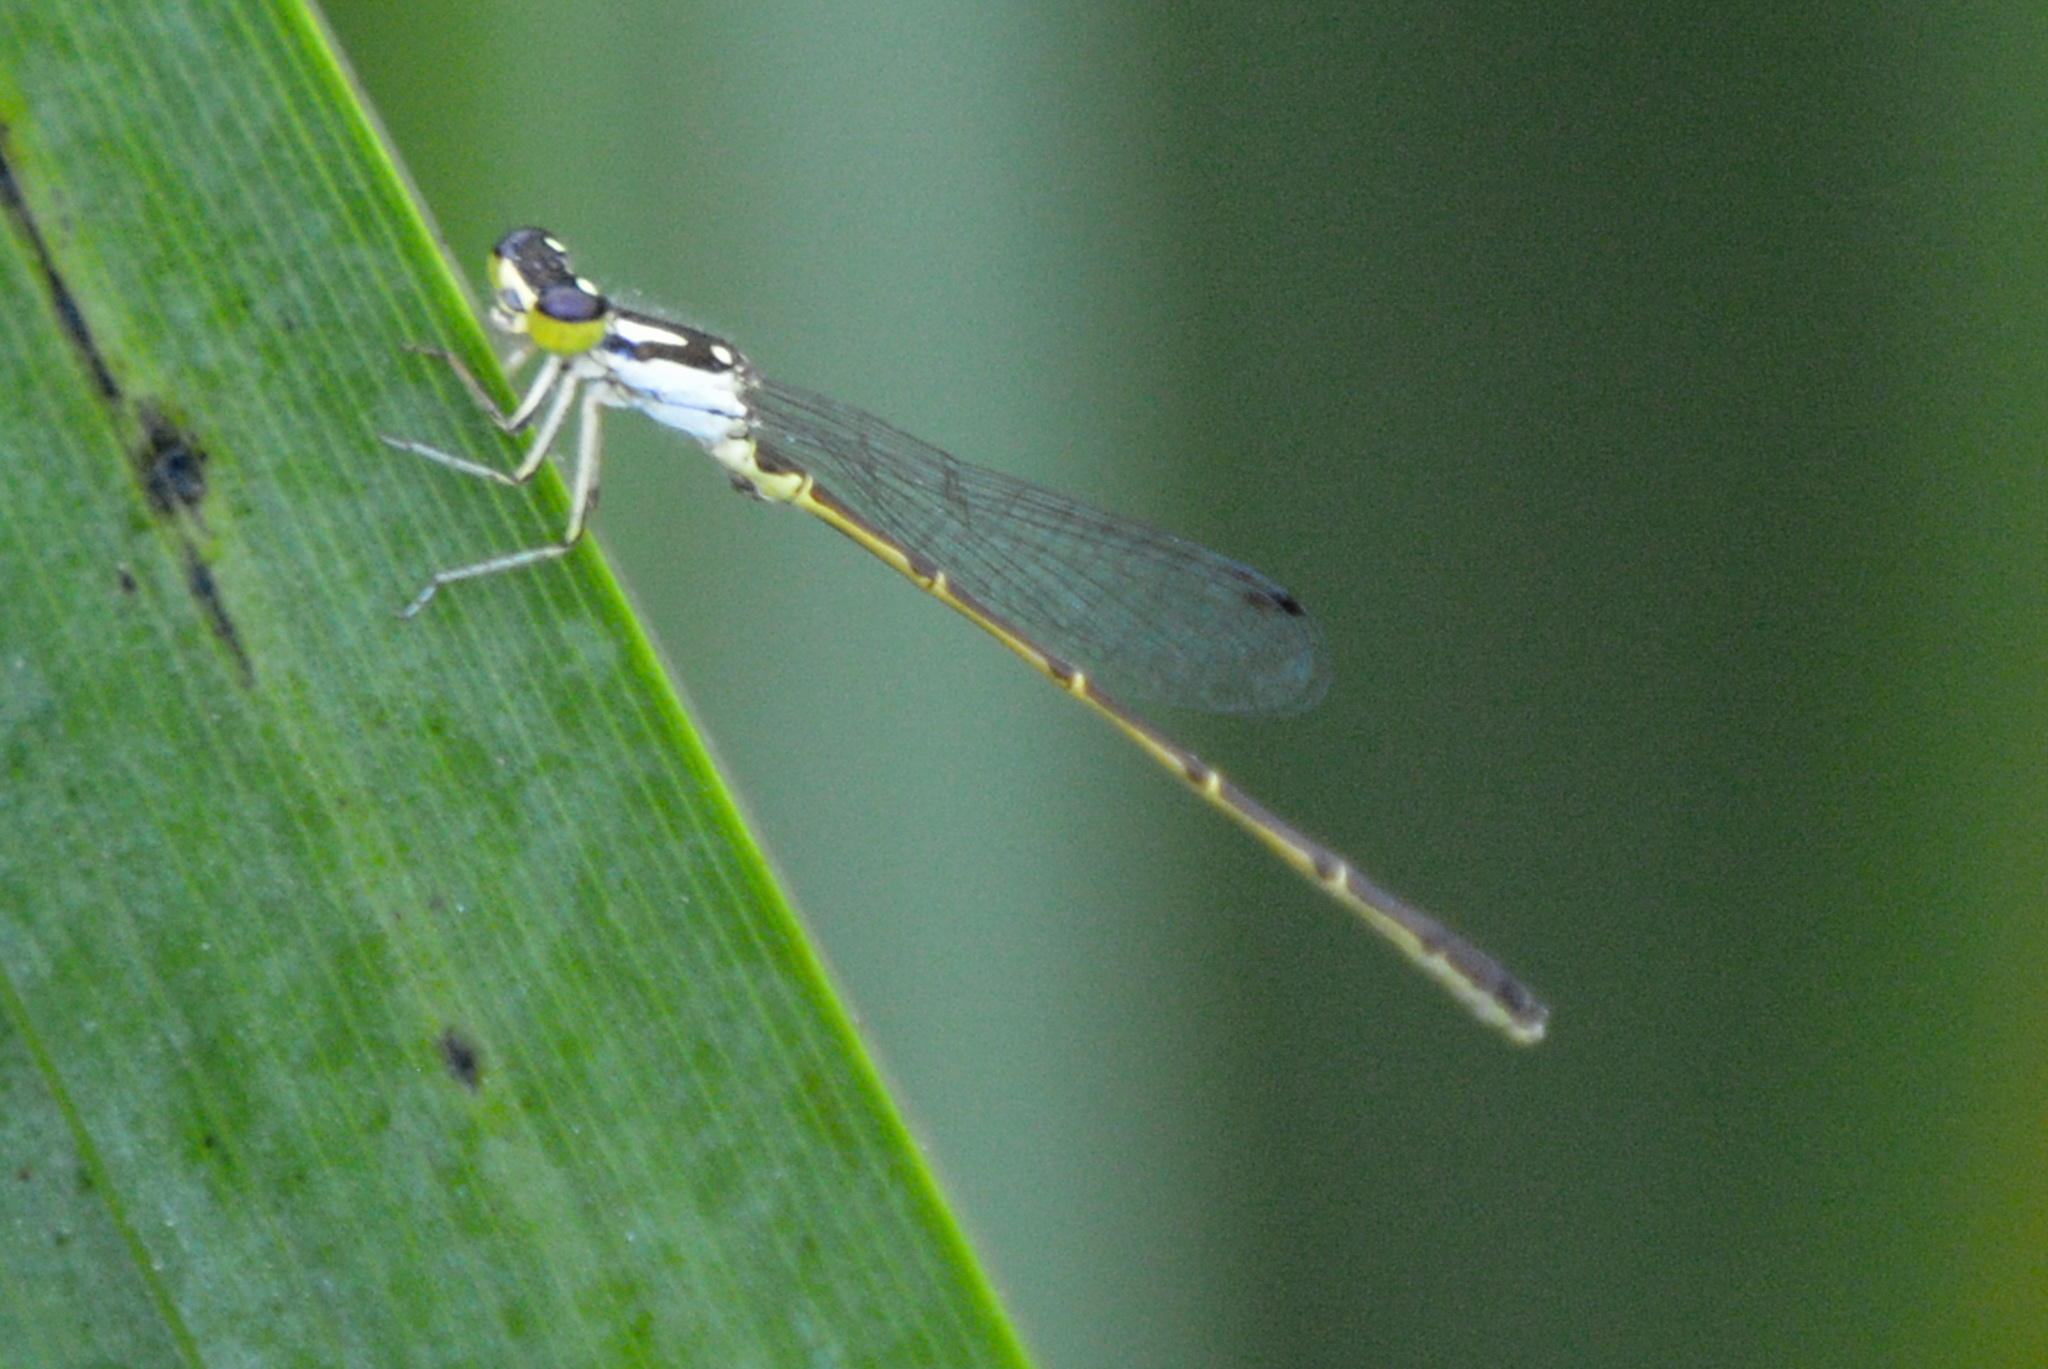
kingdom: Animalia
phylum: Arthropoda
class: Insecta
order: Odonata
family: Coenagrionidae
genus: Ischnura
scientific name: Ischnura posita
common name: Fragile forktail
